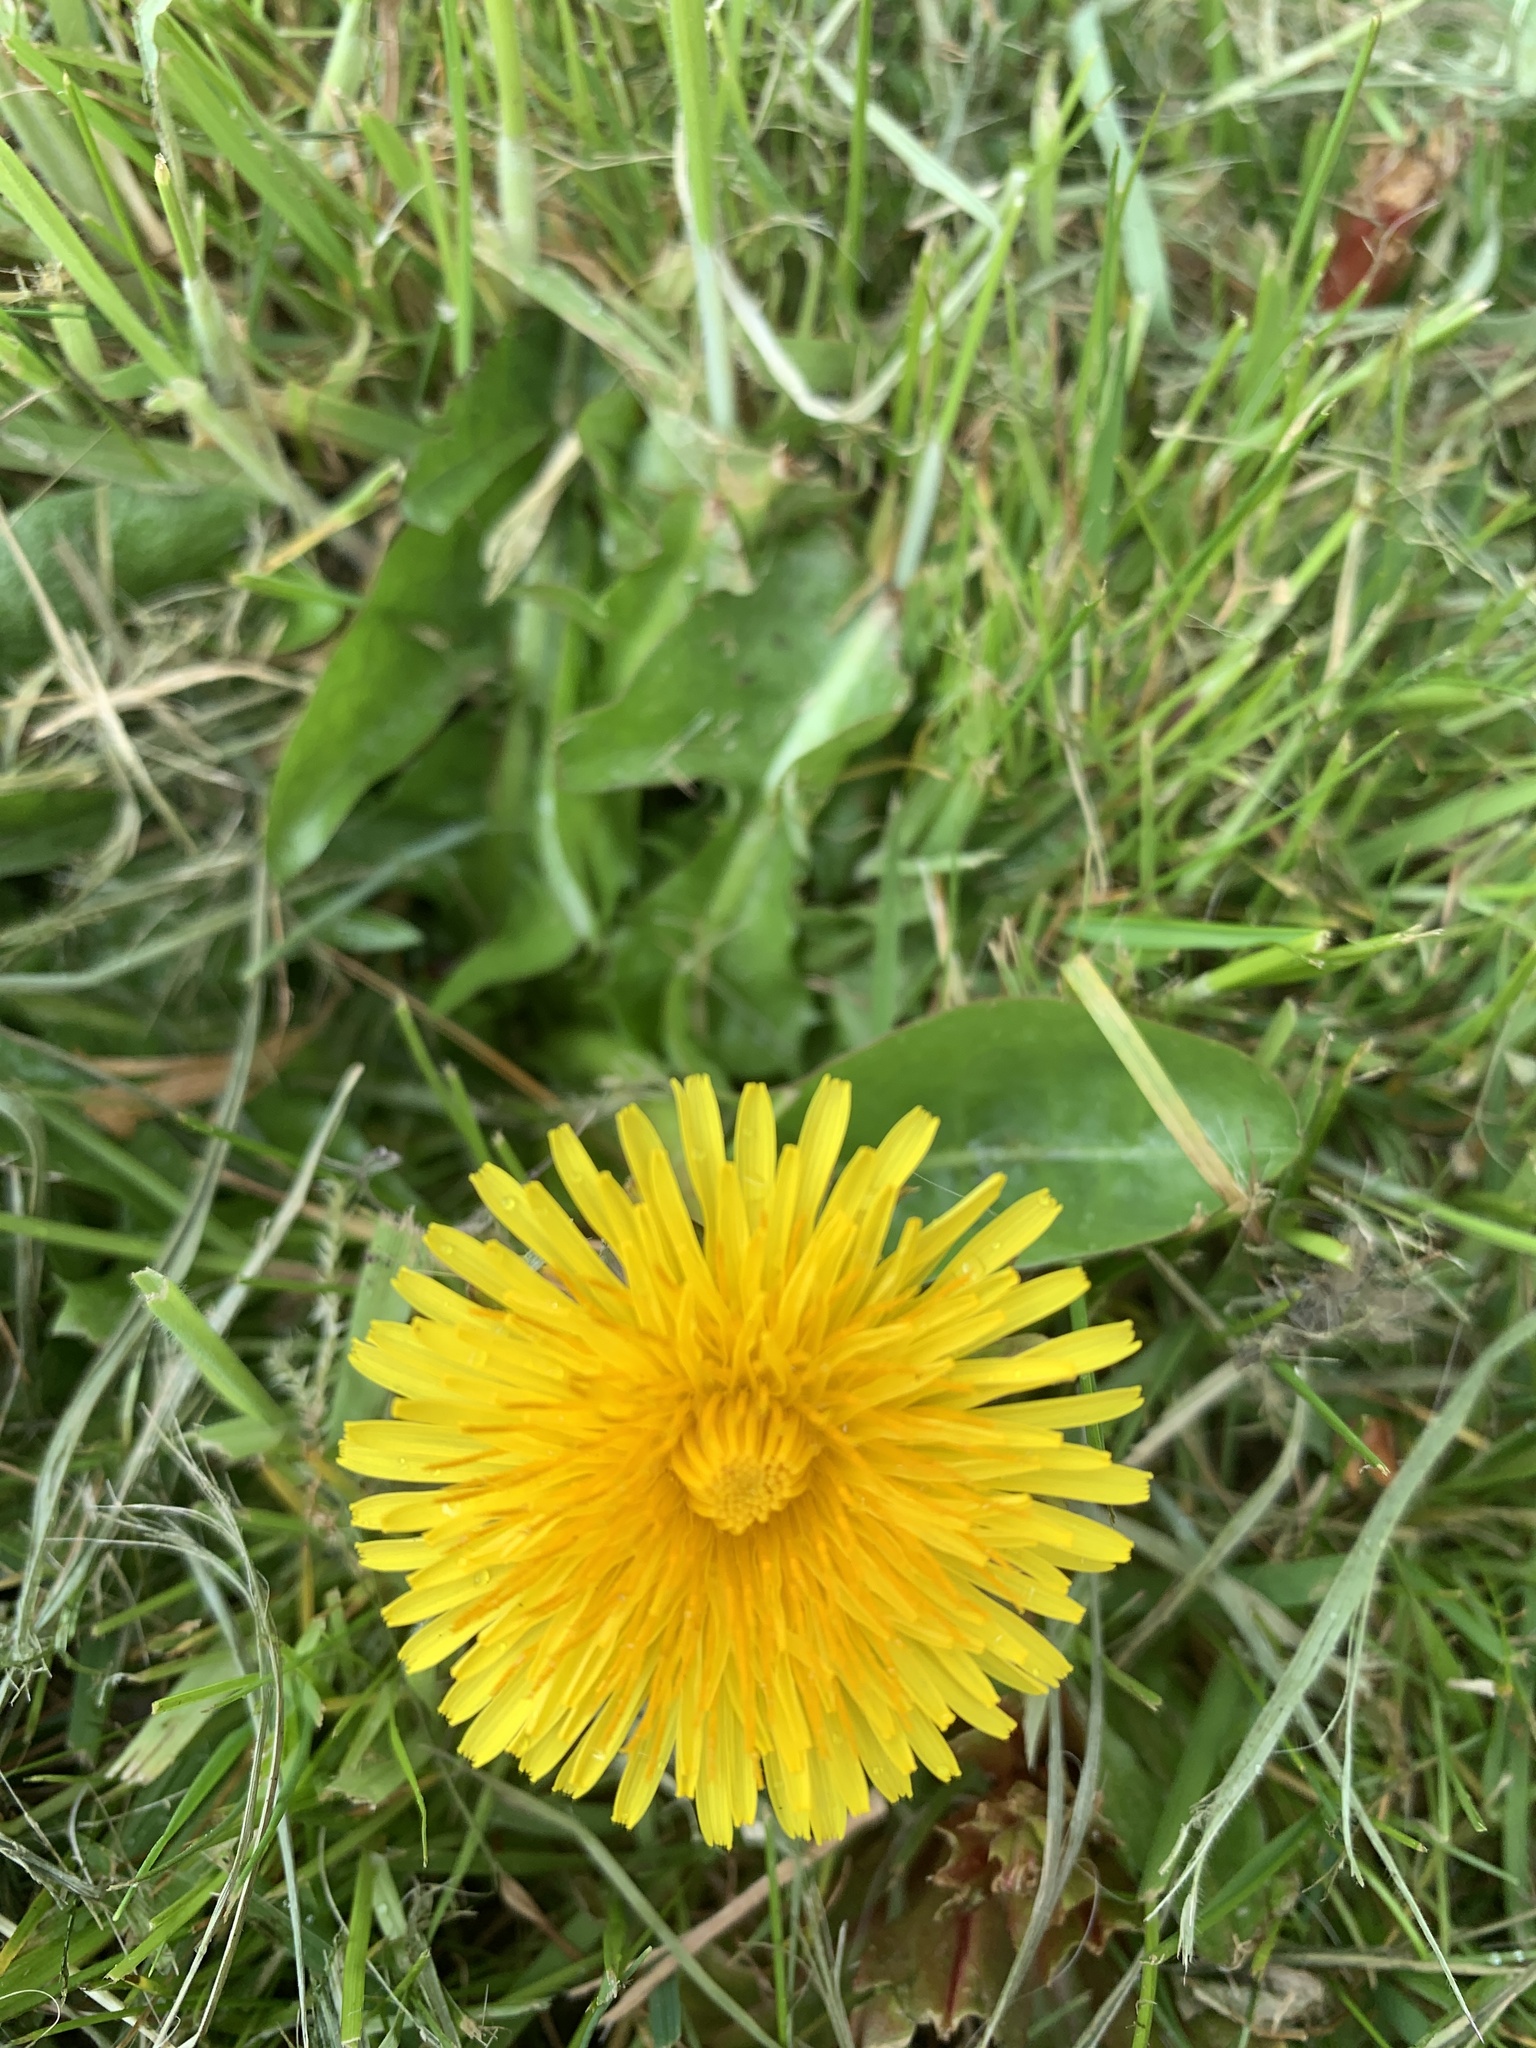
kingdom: Plantae
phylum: Tracheophyta
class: Magnoliopsida
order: Asterales
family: Asteraceae
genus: Taraxacum
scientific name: Taraxacum officinale
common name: Common dandelion
